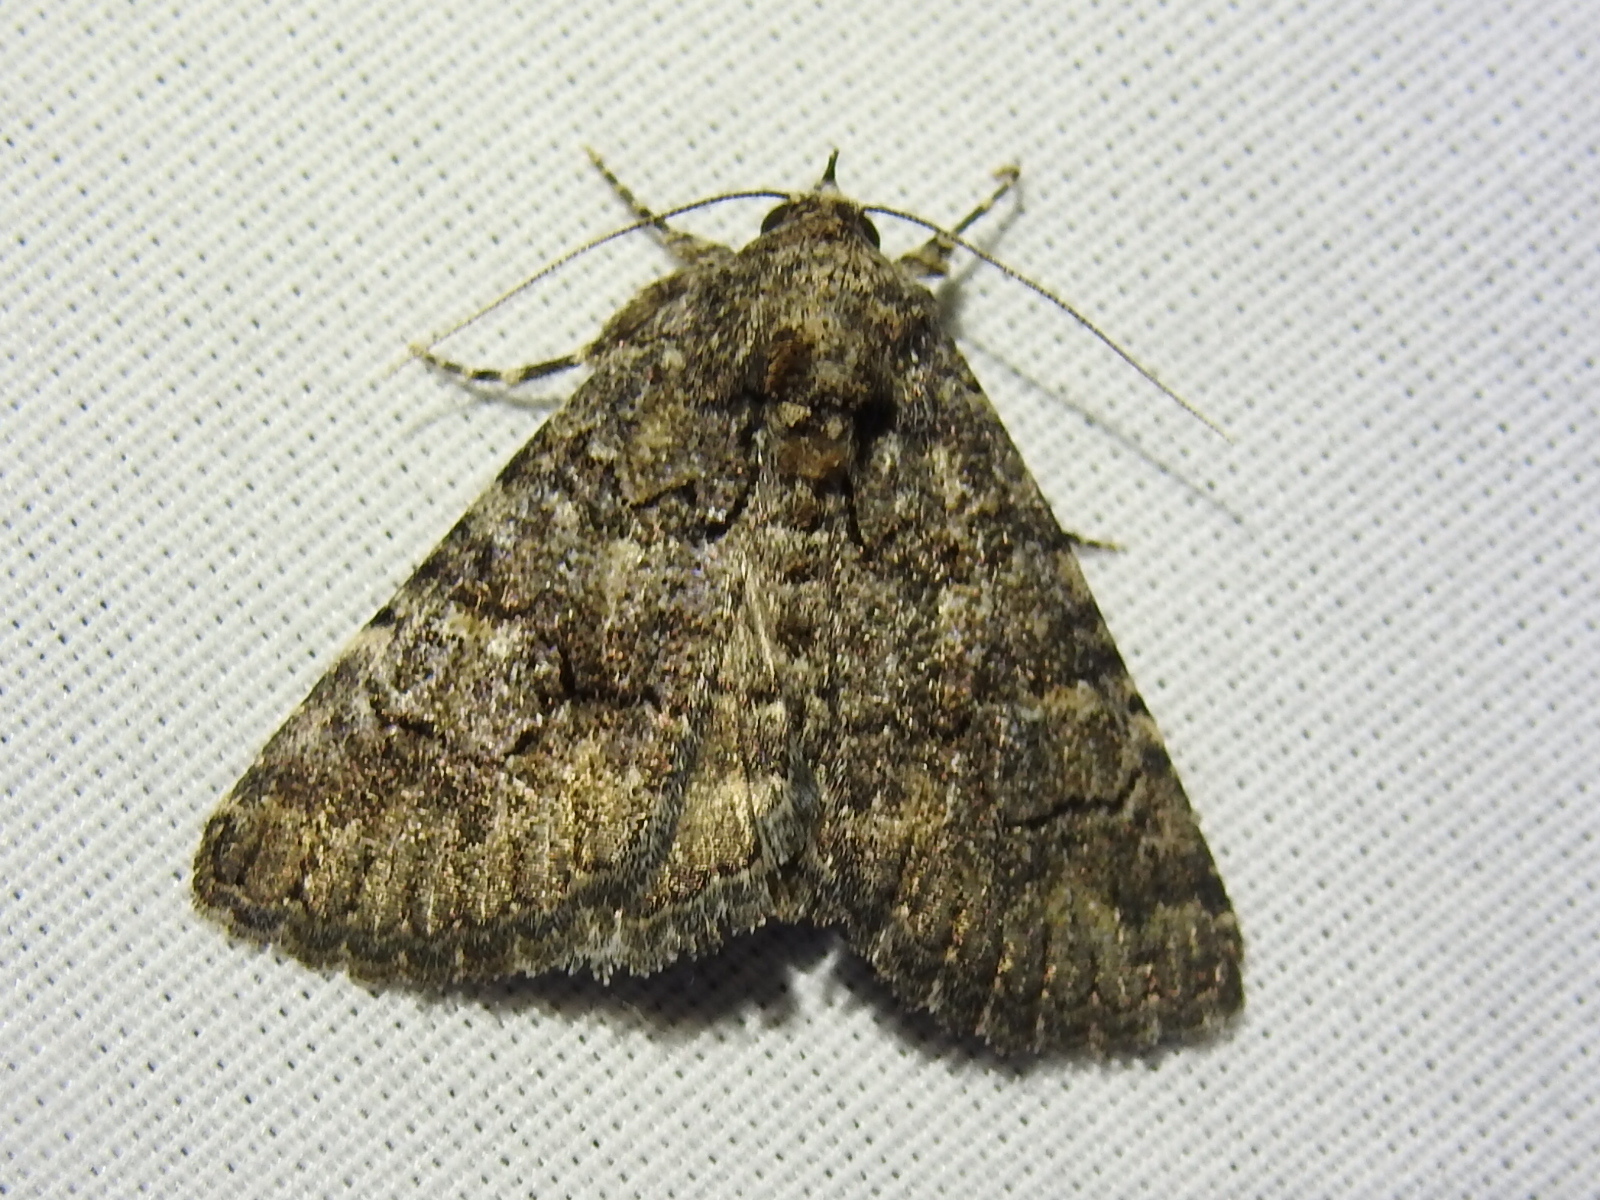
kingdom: Animalia
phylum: Arthropoda
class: Insecta
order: Lepidoptera
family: Erebidae
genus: Elousa
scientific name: Elousa mima
